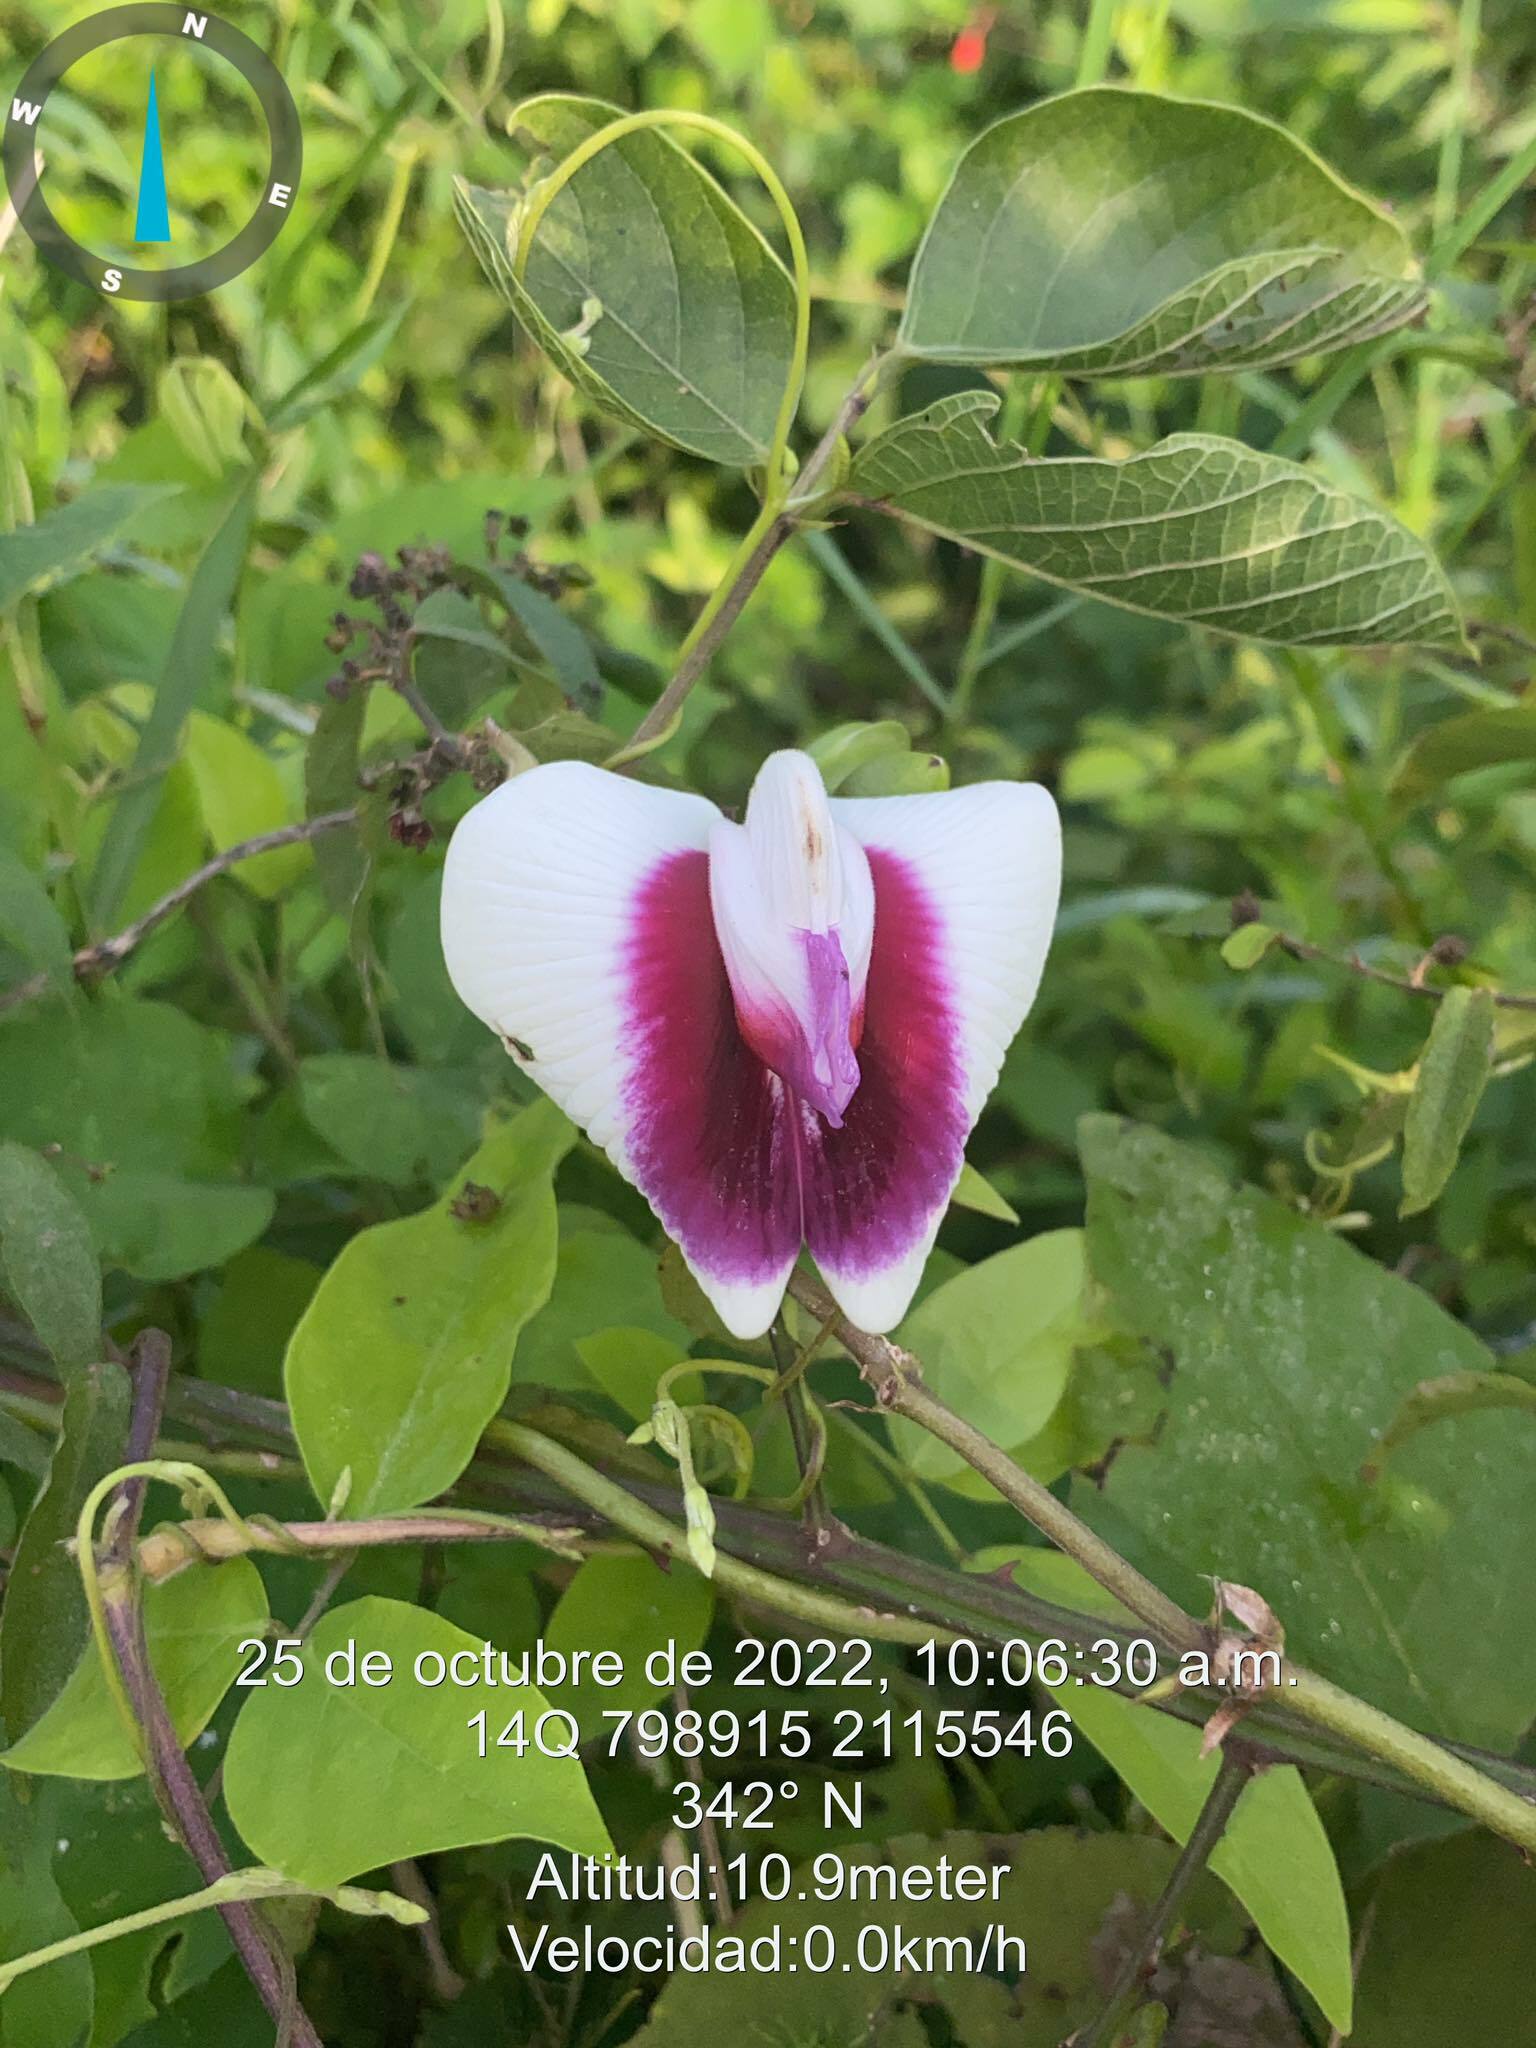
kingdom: Plantae
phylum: Tracheophyta
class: Magnoliopsida
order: Fabales
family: Fabaceae
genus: Centrosema
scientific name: Centrosema plumieri
